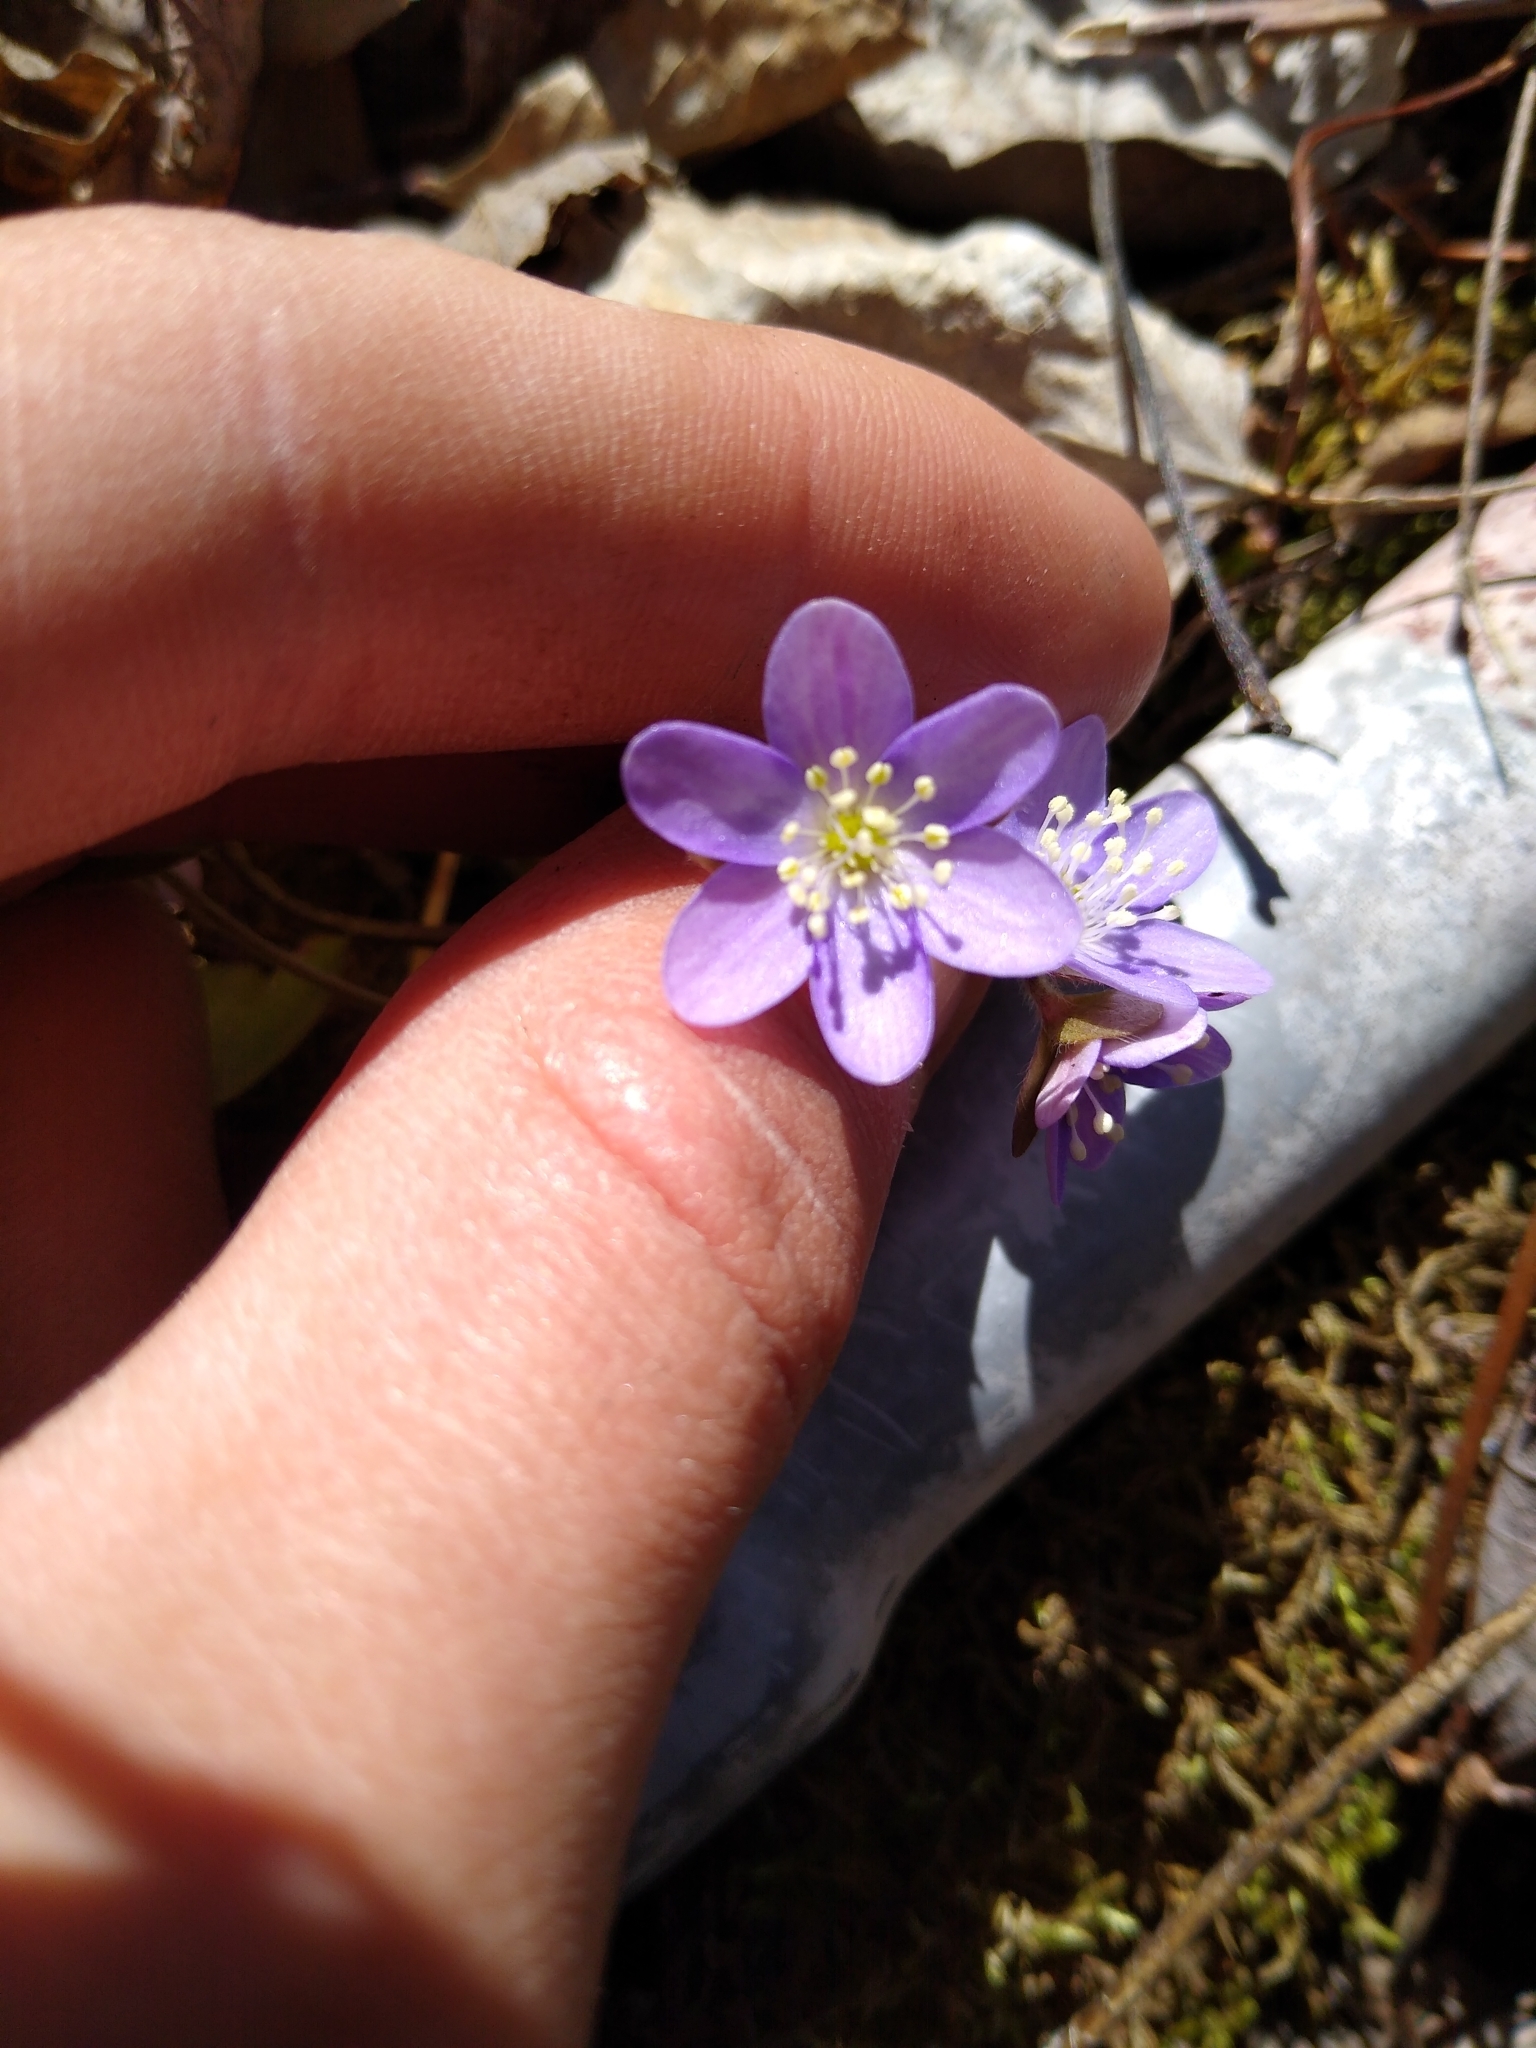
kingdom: Plantae
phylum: Tracheophyta
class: Magnoliopsida
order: Ranunculales
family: Ranunculaceae
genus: Hepatica
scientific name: Hepatica americana
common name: American hepatica
